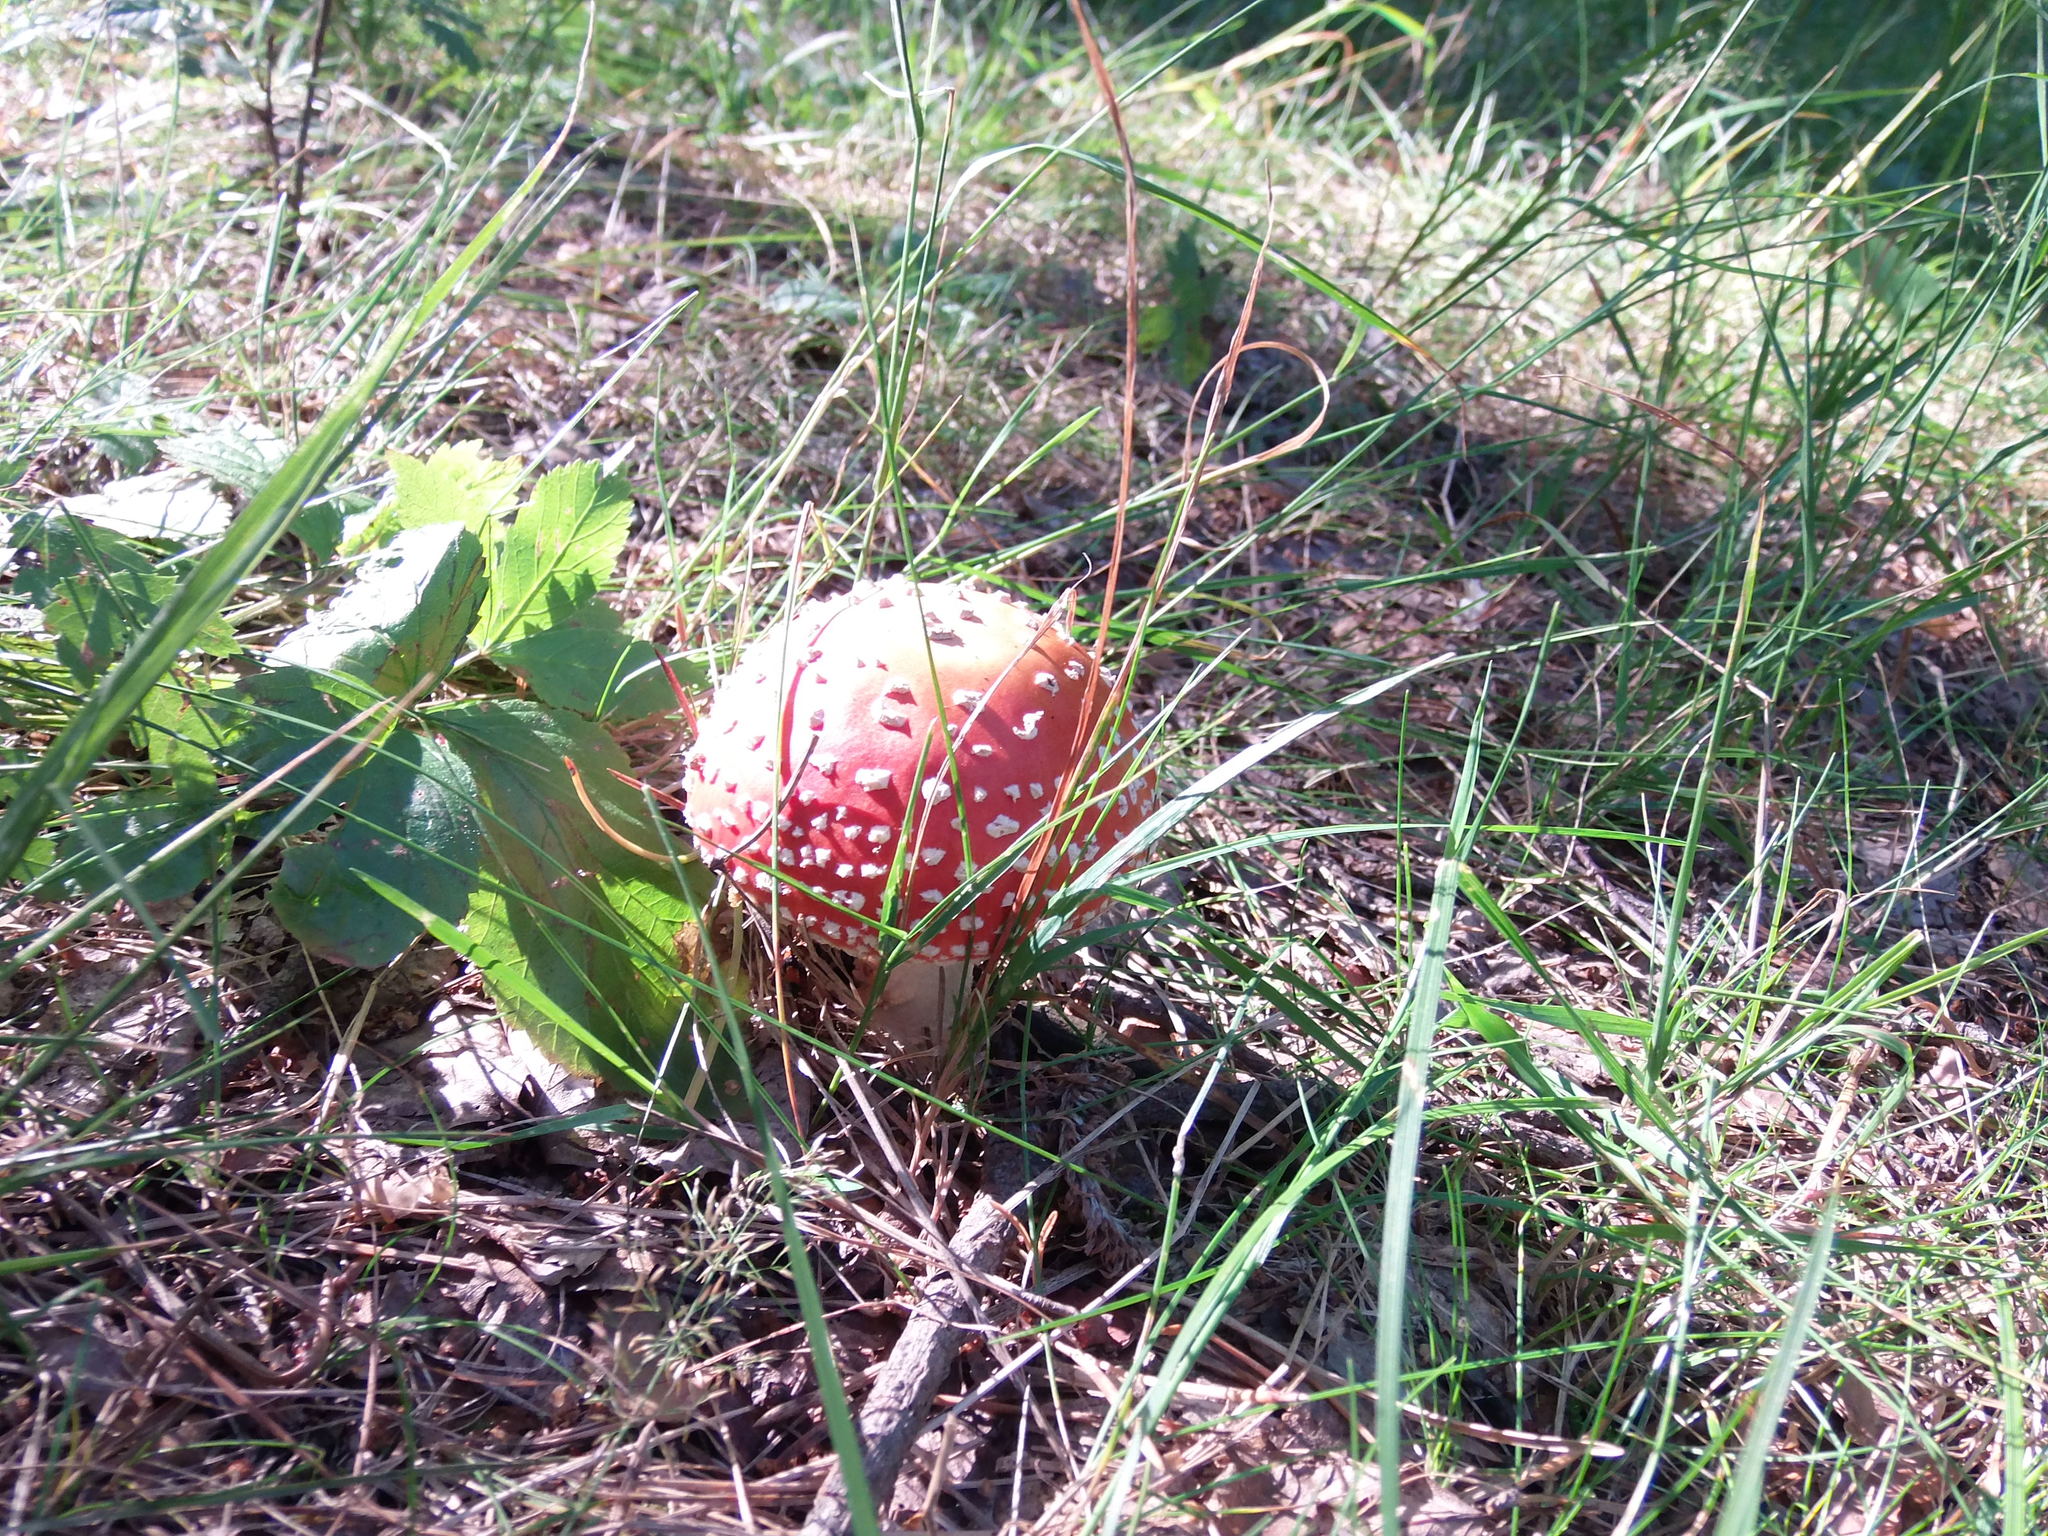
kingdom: Fungi
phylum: Basidiomycota
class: Agaricomycetes
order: Agaricales
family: Amanitaceae
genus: Amanita
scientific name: Amanita muscaria
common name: Fly agaric
